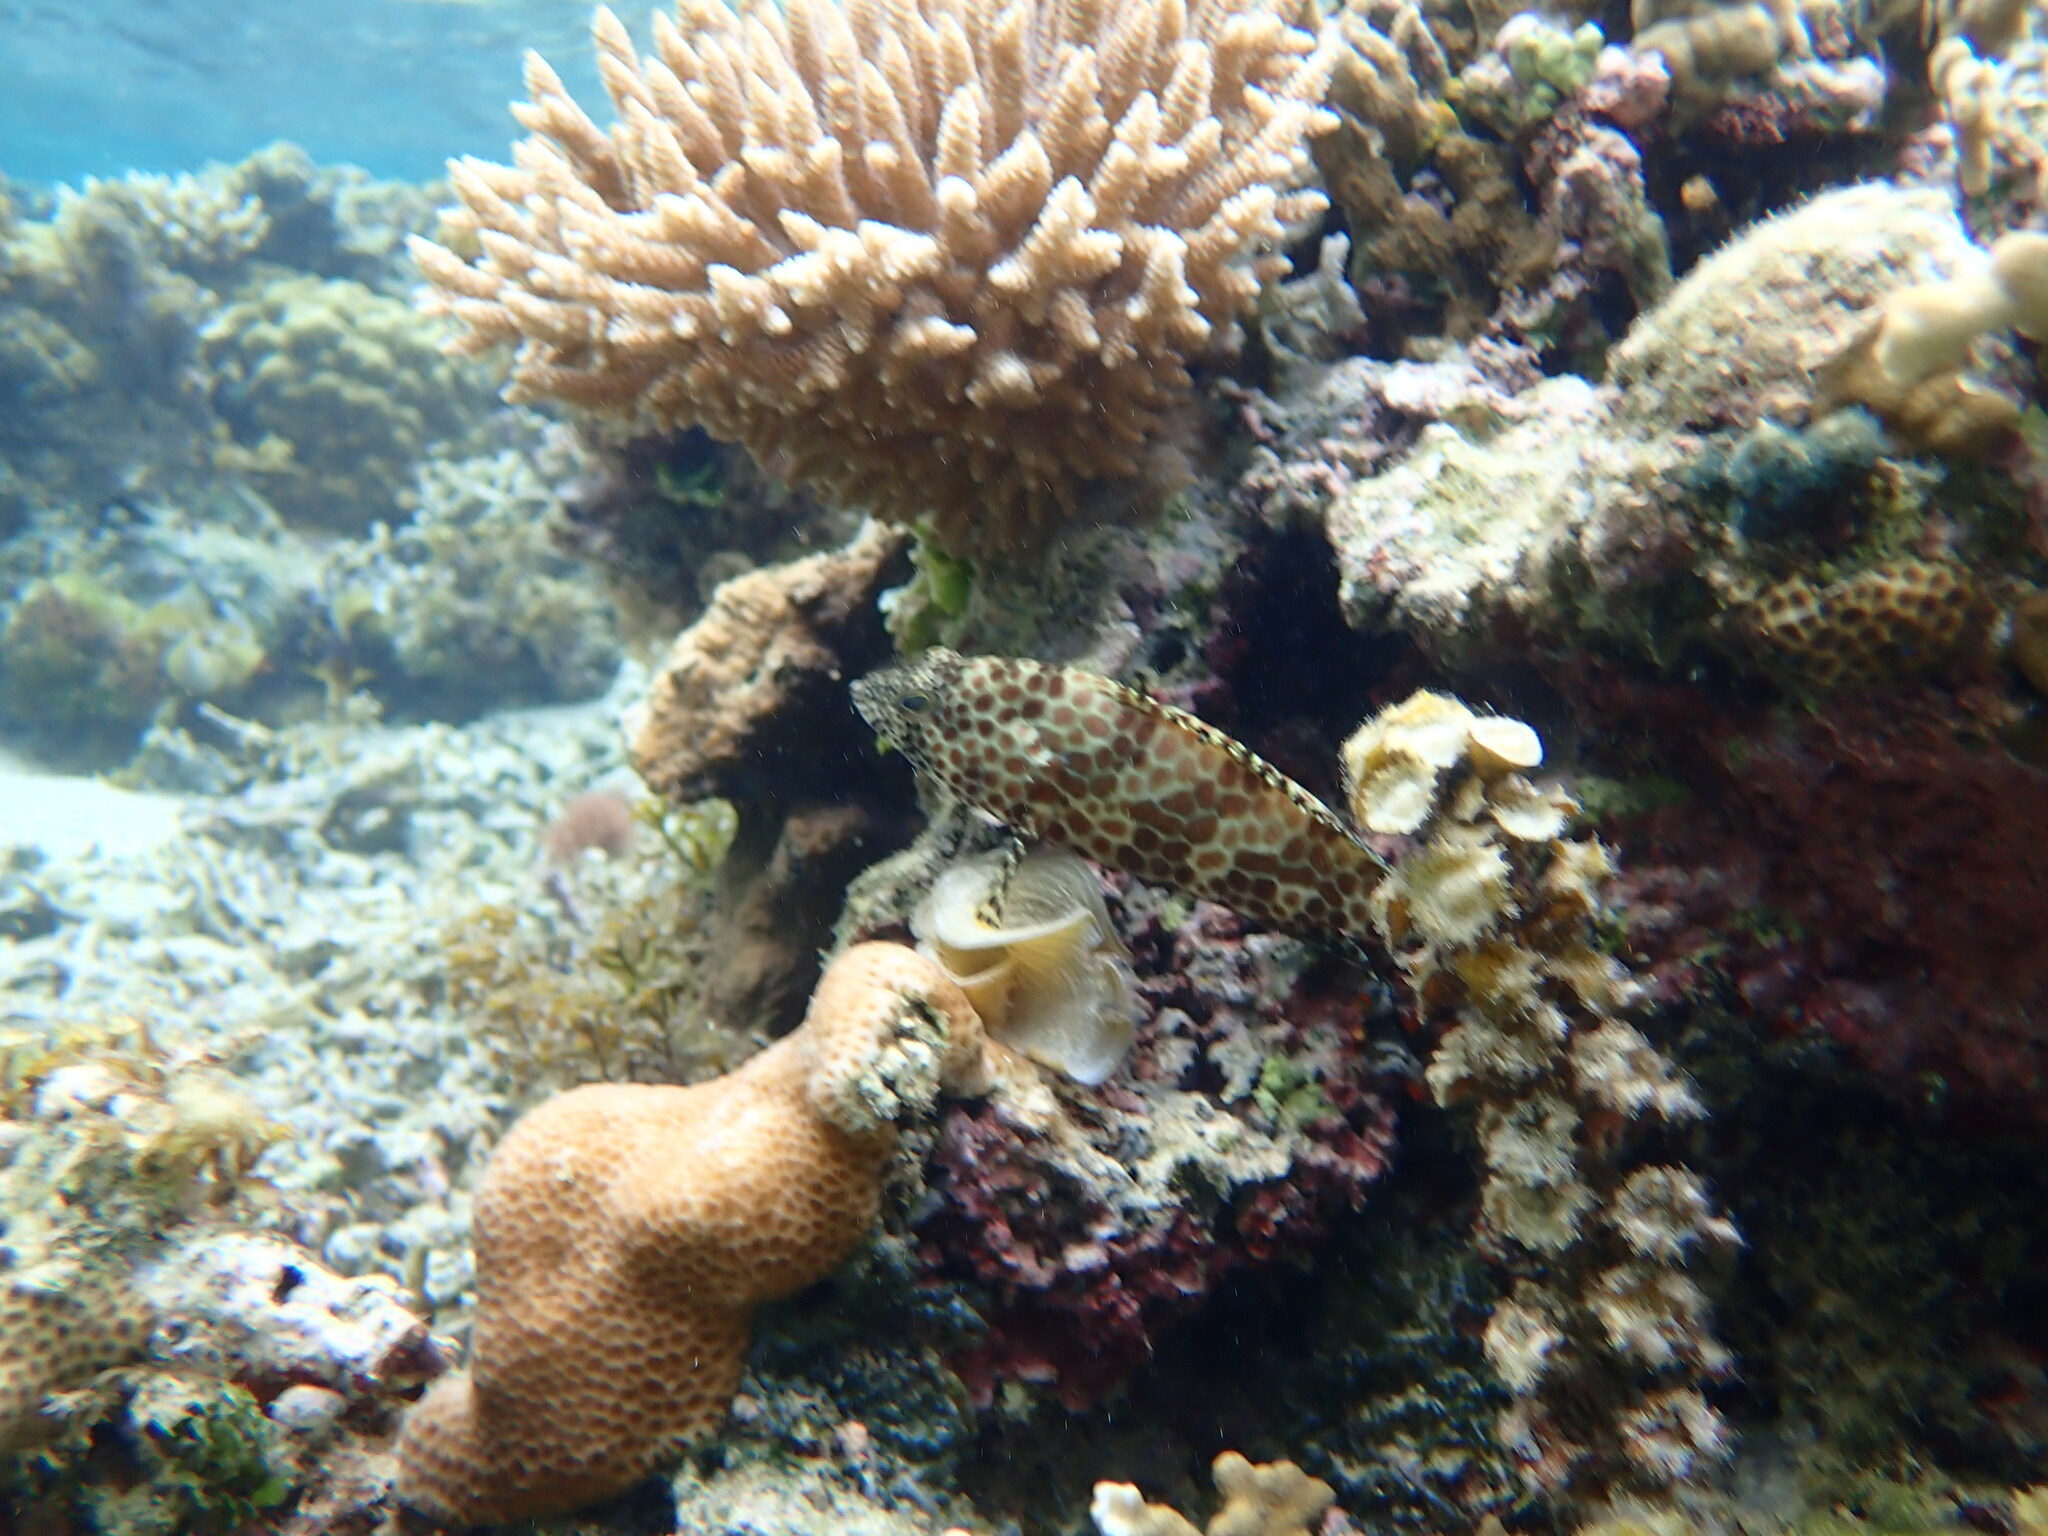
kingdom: Animalia
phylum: Chordata
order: Perciformes
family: Serranidae
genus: Epinephelus
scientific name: Epinephelus merra
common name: Honeycomb grouper
